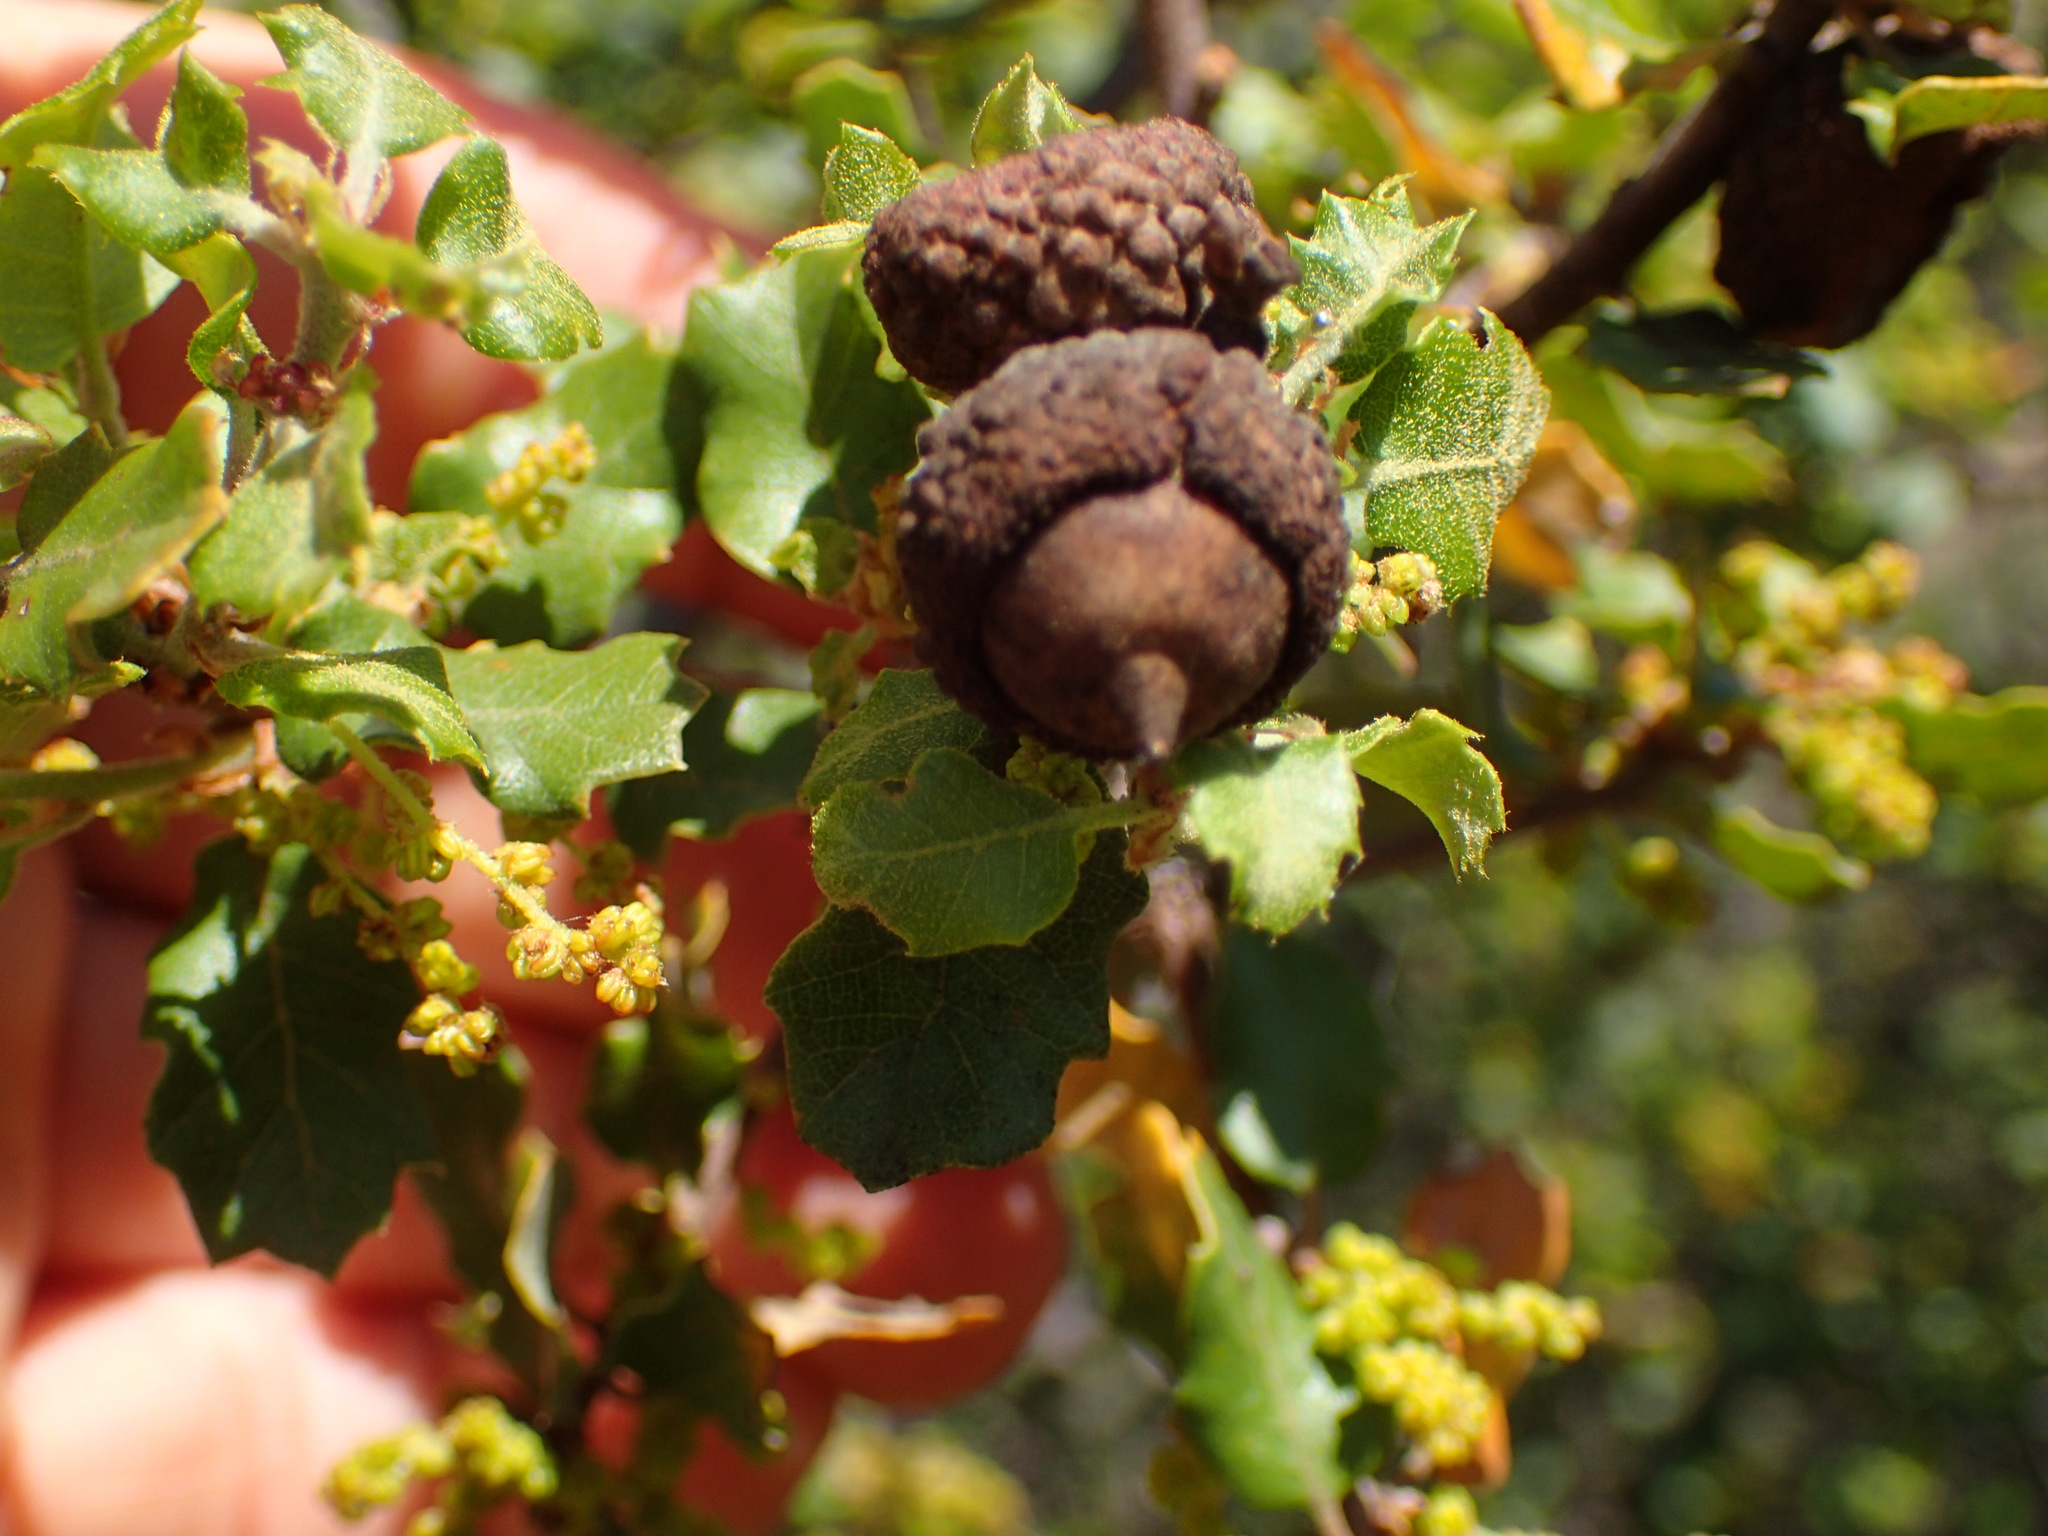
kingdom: Plantae
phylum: Tracheophyta
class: Magnoliopsida
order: Fagales
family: Fagaceae
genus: Quercus
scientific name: Quercus berberidifolia
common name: California scrub oak
